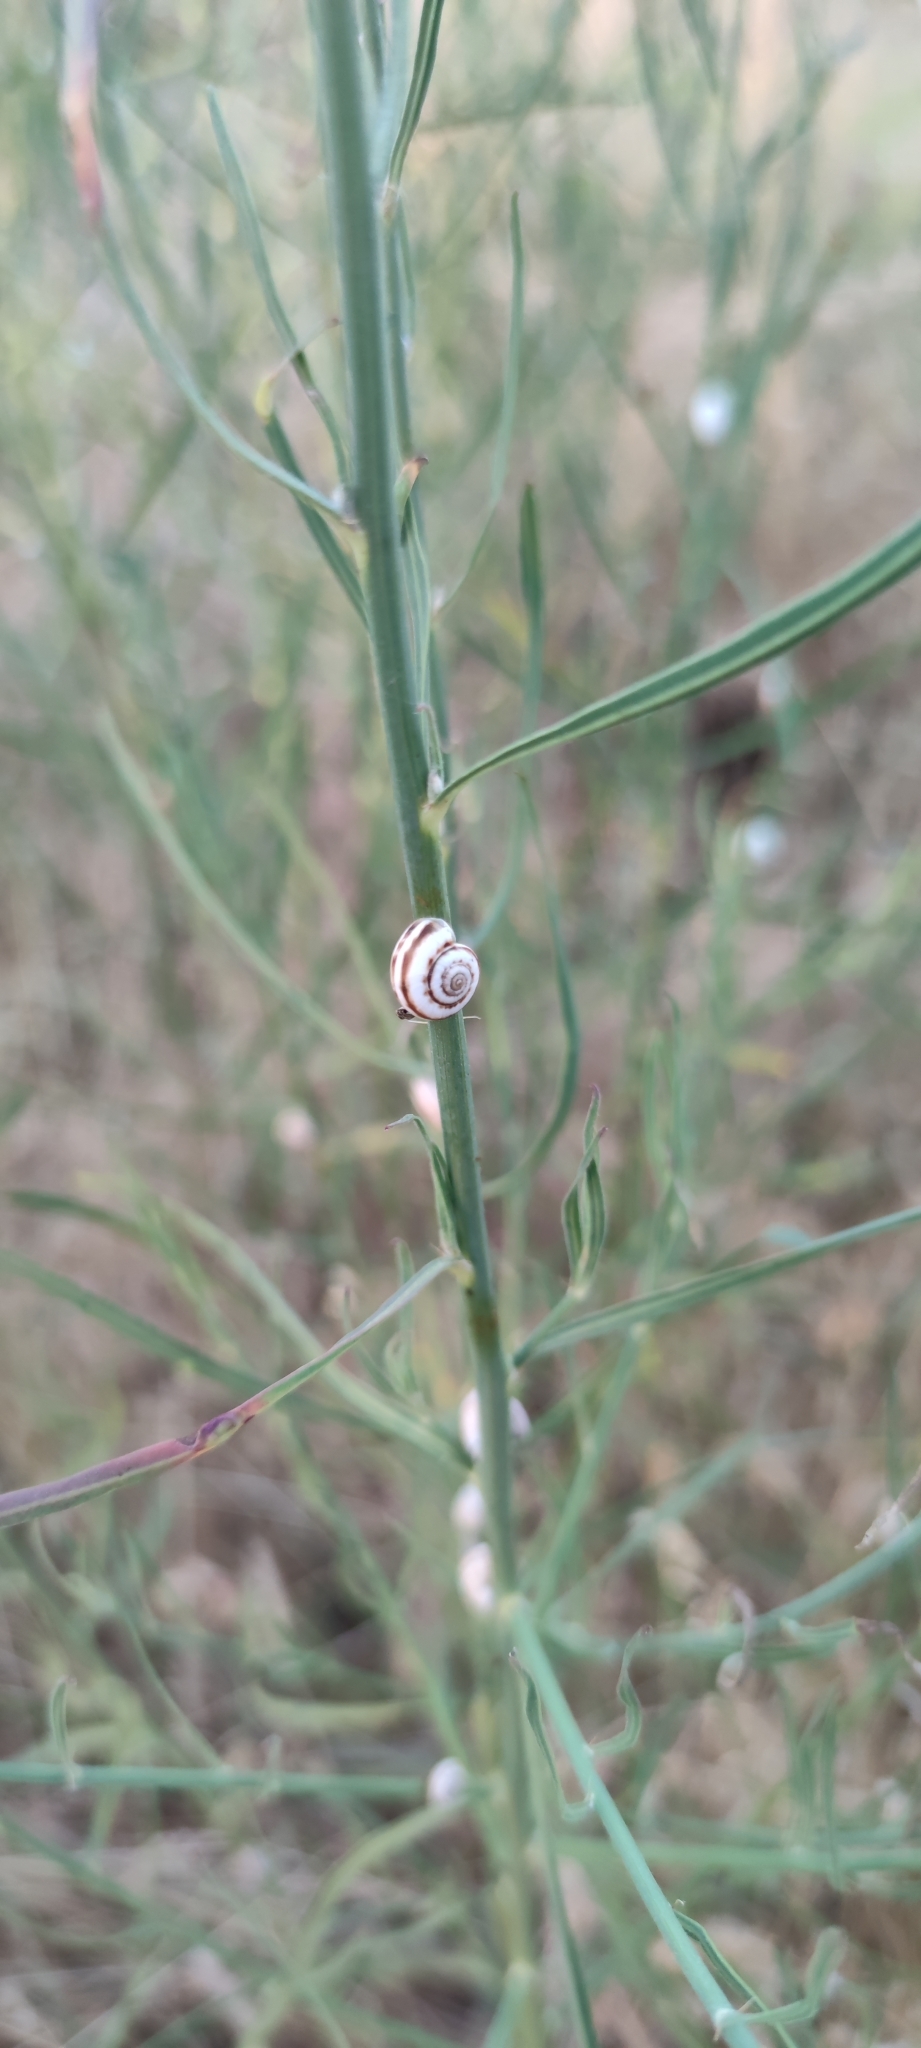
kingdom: Animalia
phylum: Mollusca
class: Gastropoda
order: Stylommatophora
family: Geomitridae
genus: Xeropicta
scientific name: Xeropicta derbentina
